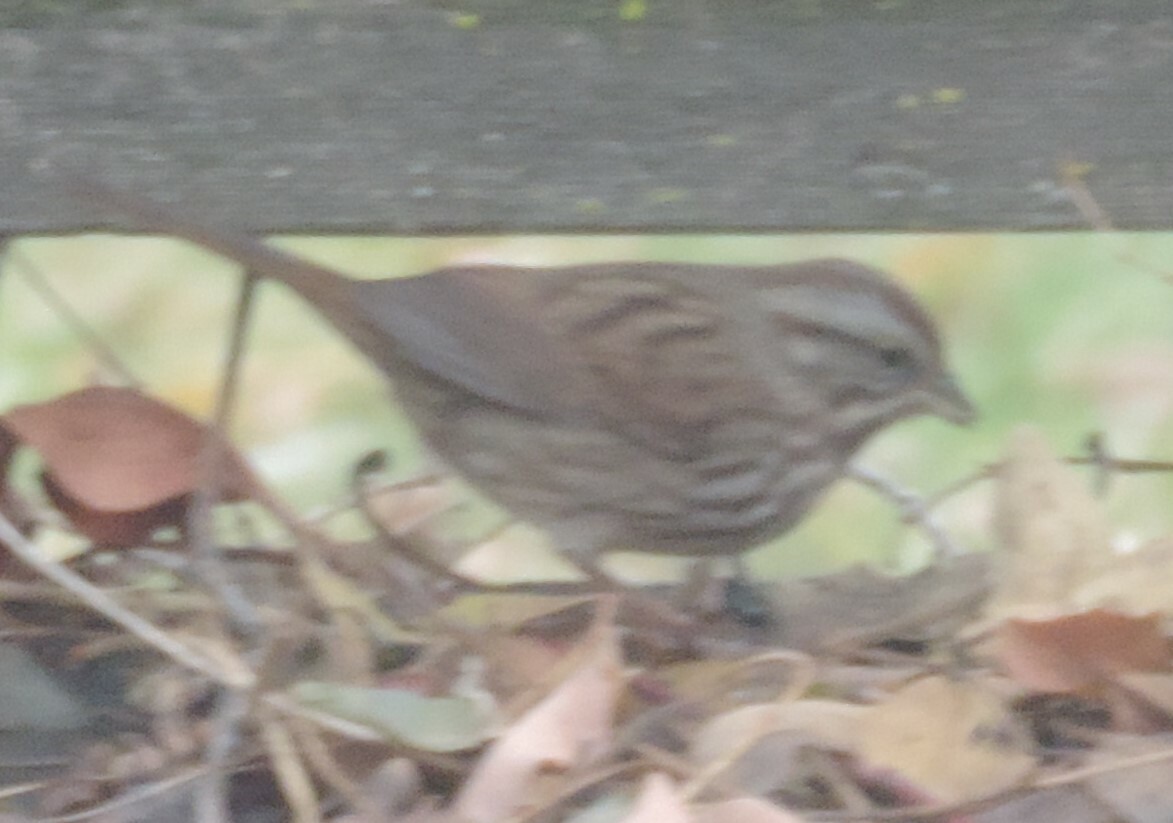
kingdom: Animalia
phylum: Chordata
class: Aves
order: Passeriformes
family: Passerellidae
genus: Melospiza
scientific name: Melospiza melodia
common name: Song sparrow
